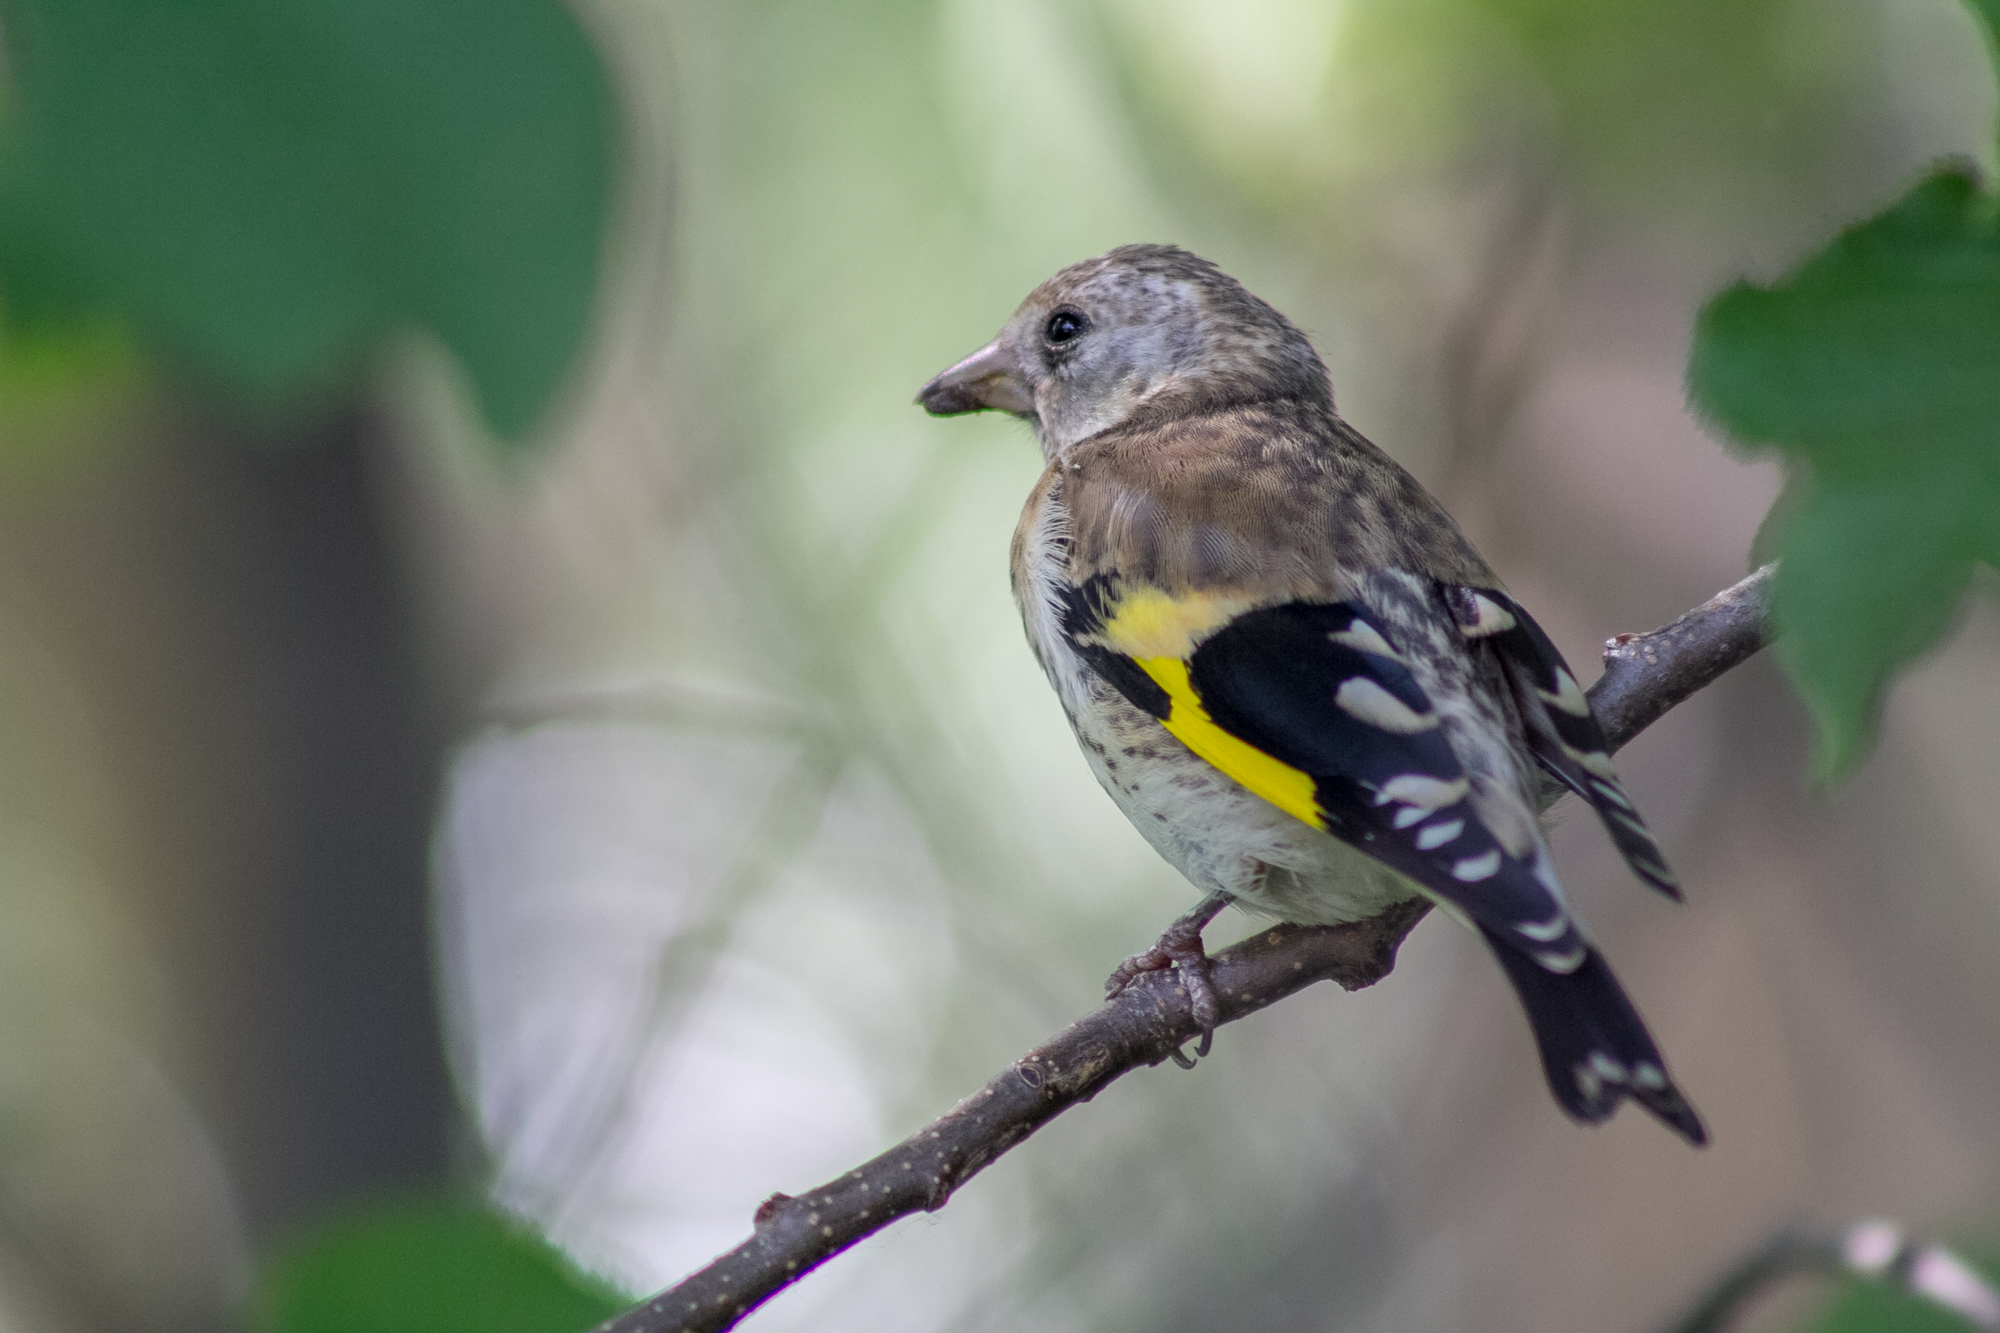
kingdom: Animalia
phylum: Chordata
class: Aves
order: Passeriformes
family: Fringillidae
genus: Carduelis
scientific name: Carduelis carduelis
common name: European goldfinch
